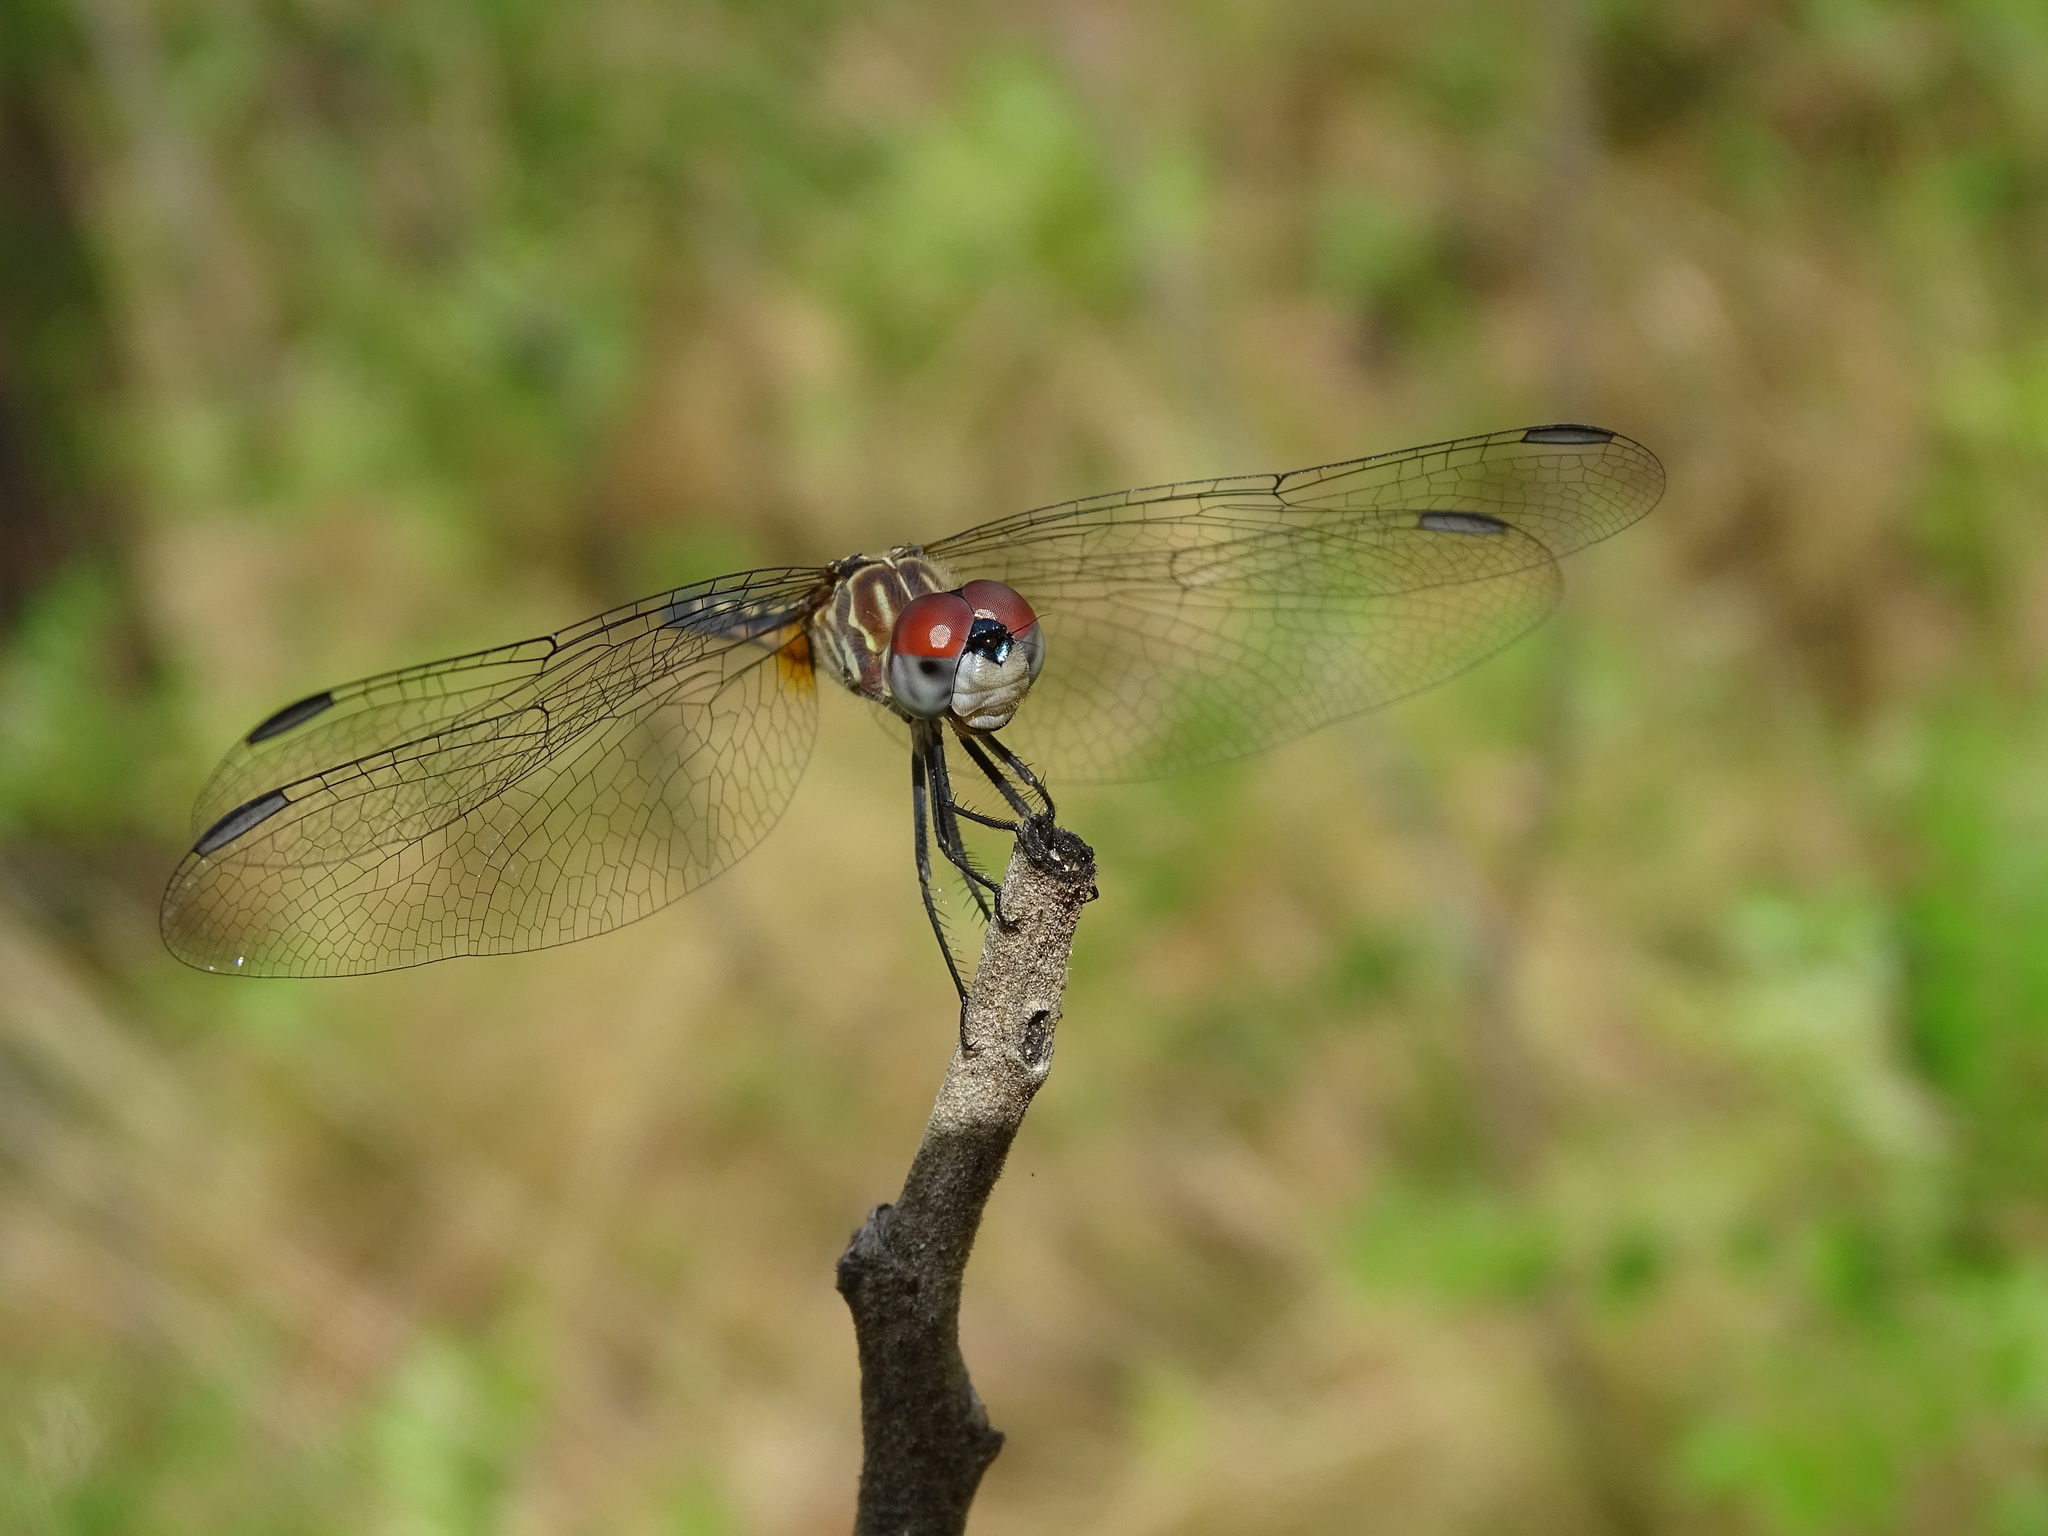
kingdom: Animalia
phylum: Arthropoda
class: Insecta
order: Odonata
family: Libellulidae
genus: Pachydiplax
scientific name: Pachydiplax longipennis
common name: Blue dasher
